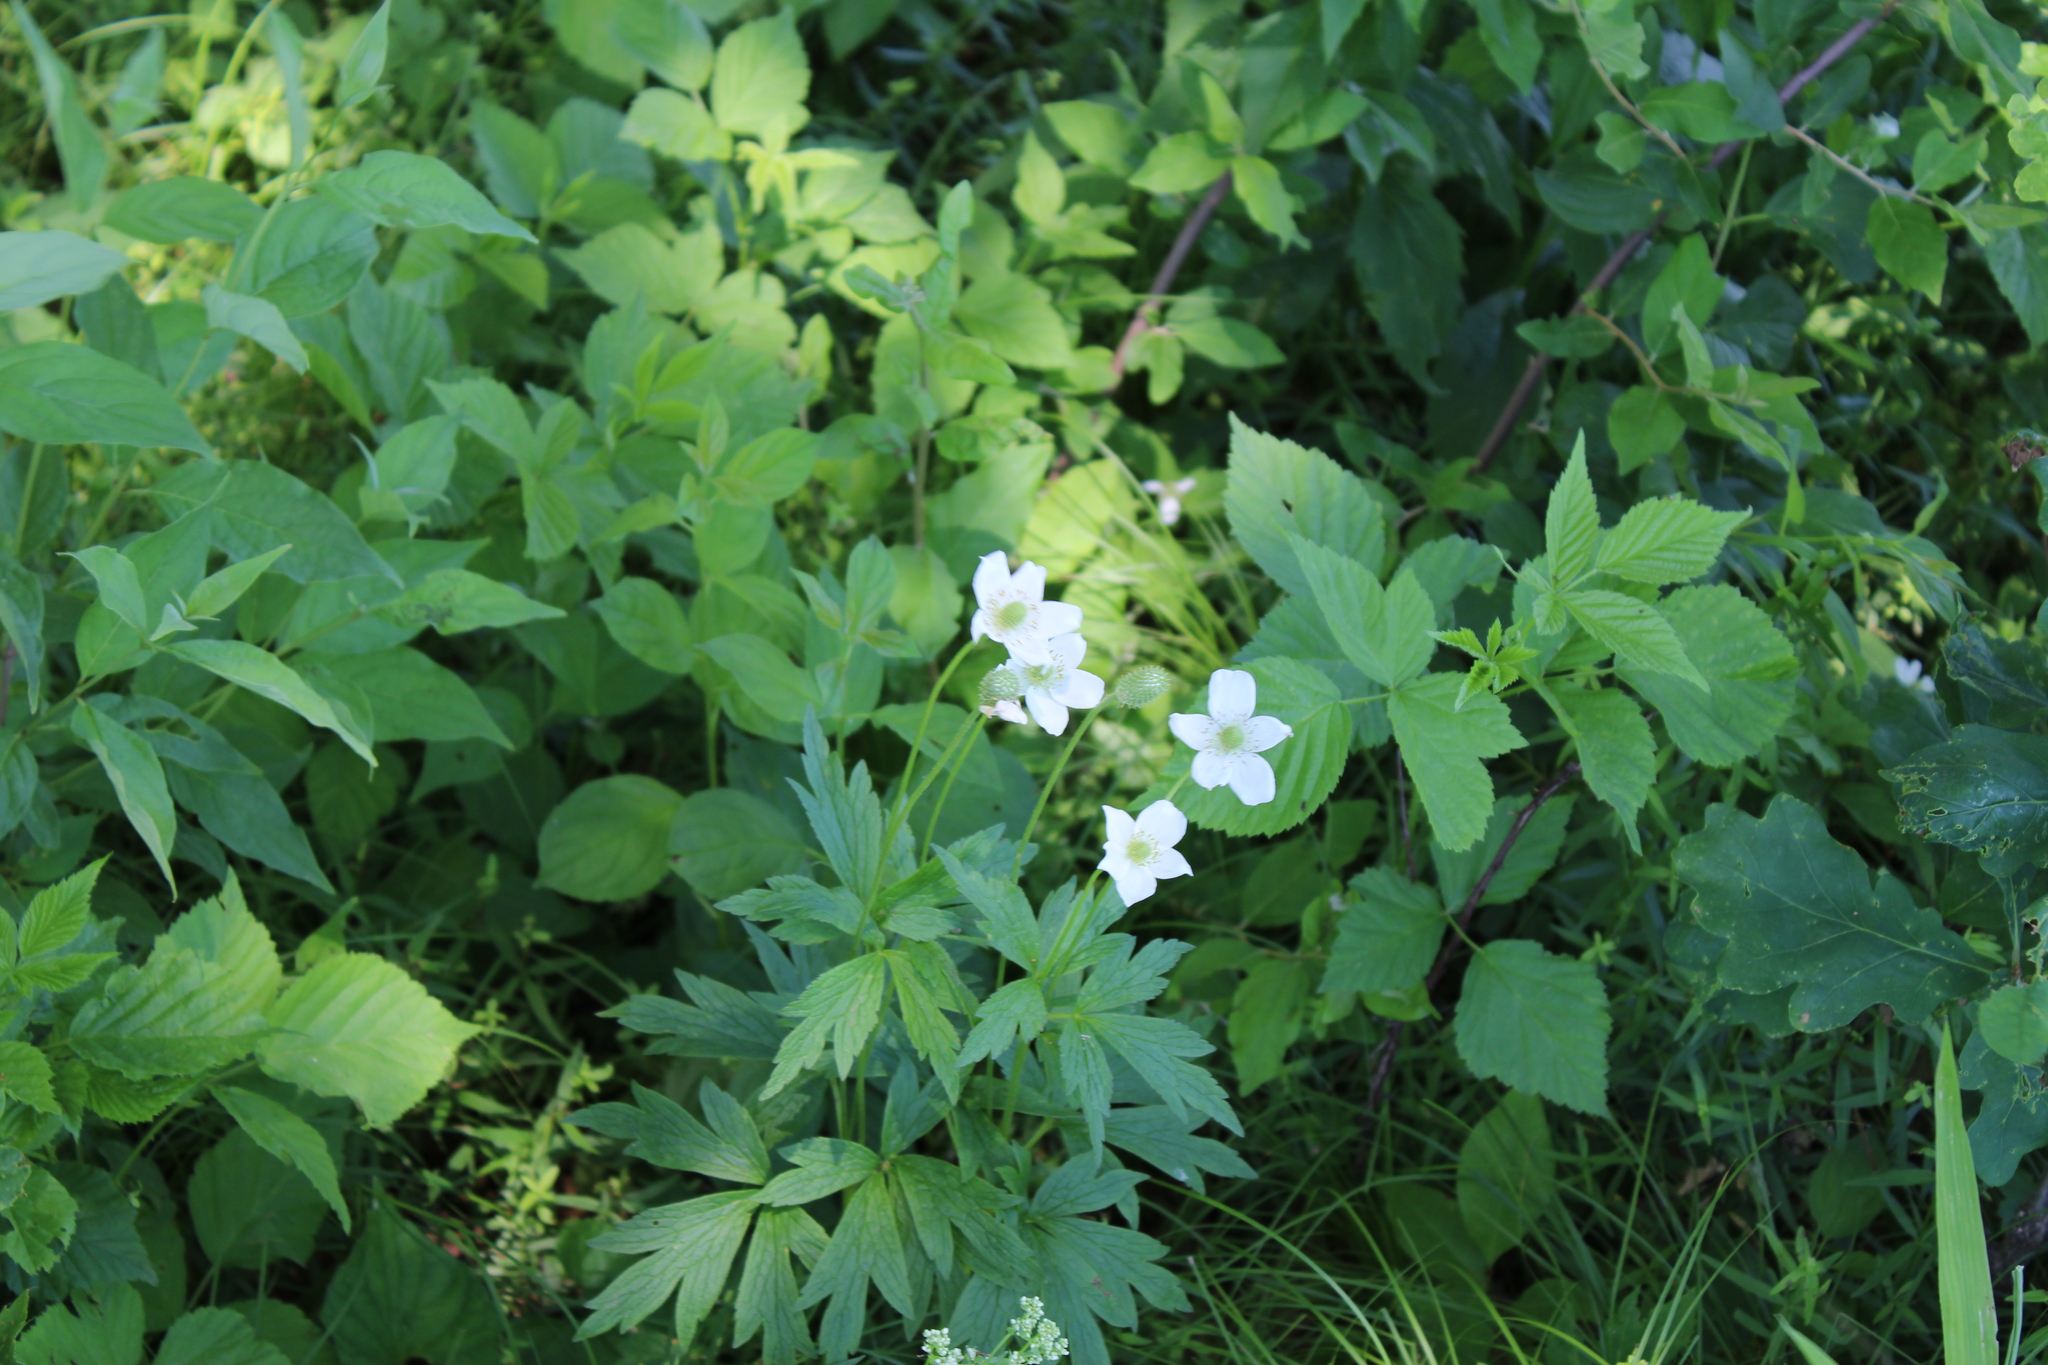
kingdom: Plantae
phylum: Tracheophyta
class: Magnoliopsida
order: Ranunculales
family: Ranunculaceae
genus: Anemone
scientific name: Anemone virginiana
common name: Tall anemone
